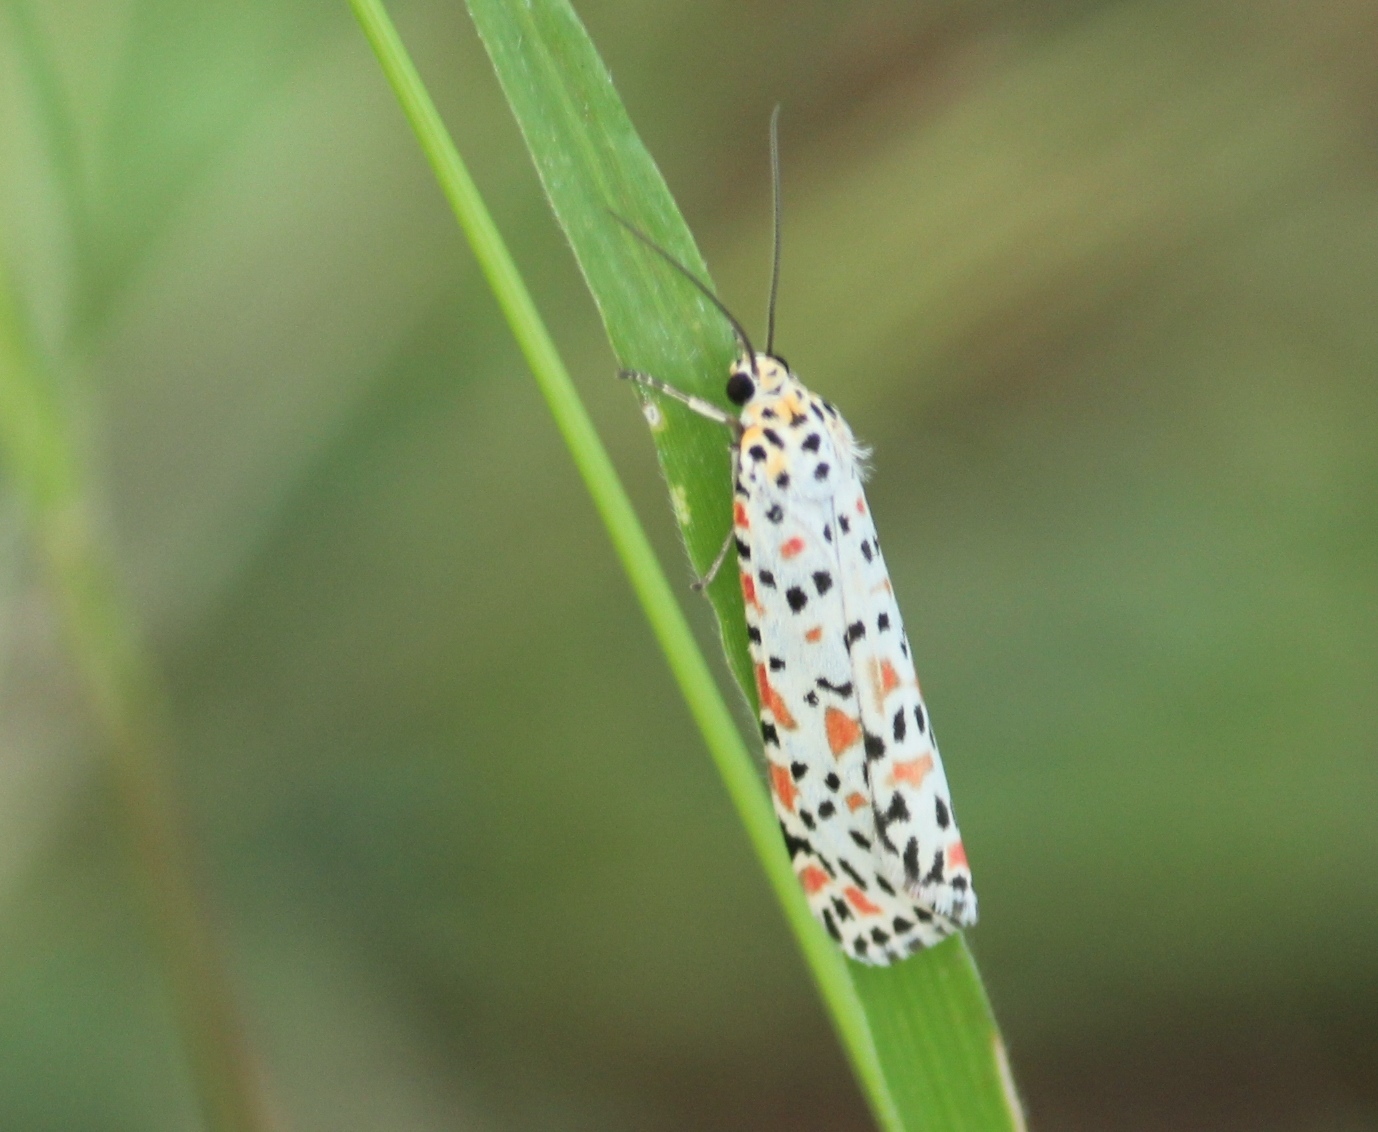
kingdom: Animalia
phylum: Arthropoda
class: Insecta
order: Lepidoptera
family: Erebidae
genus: Utetheisa
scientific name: Utetheisa pulchelloides
